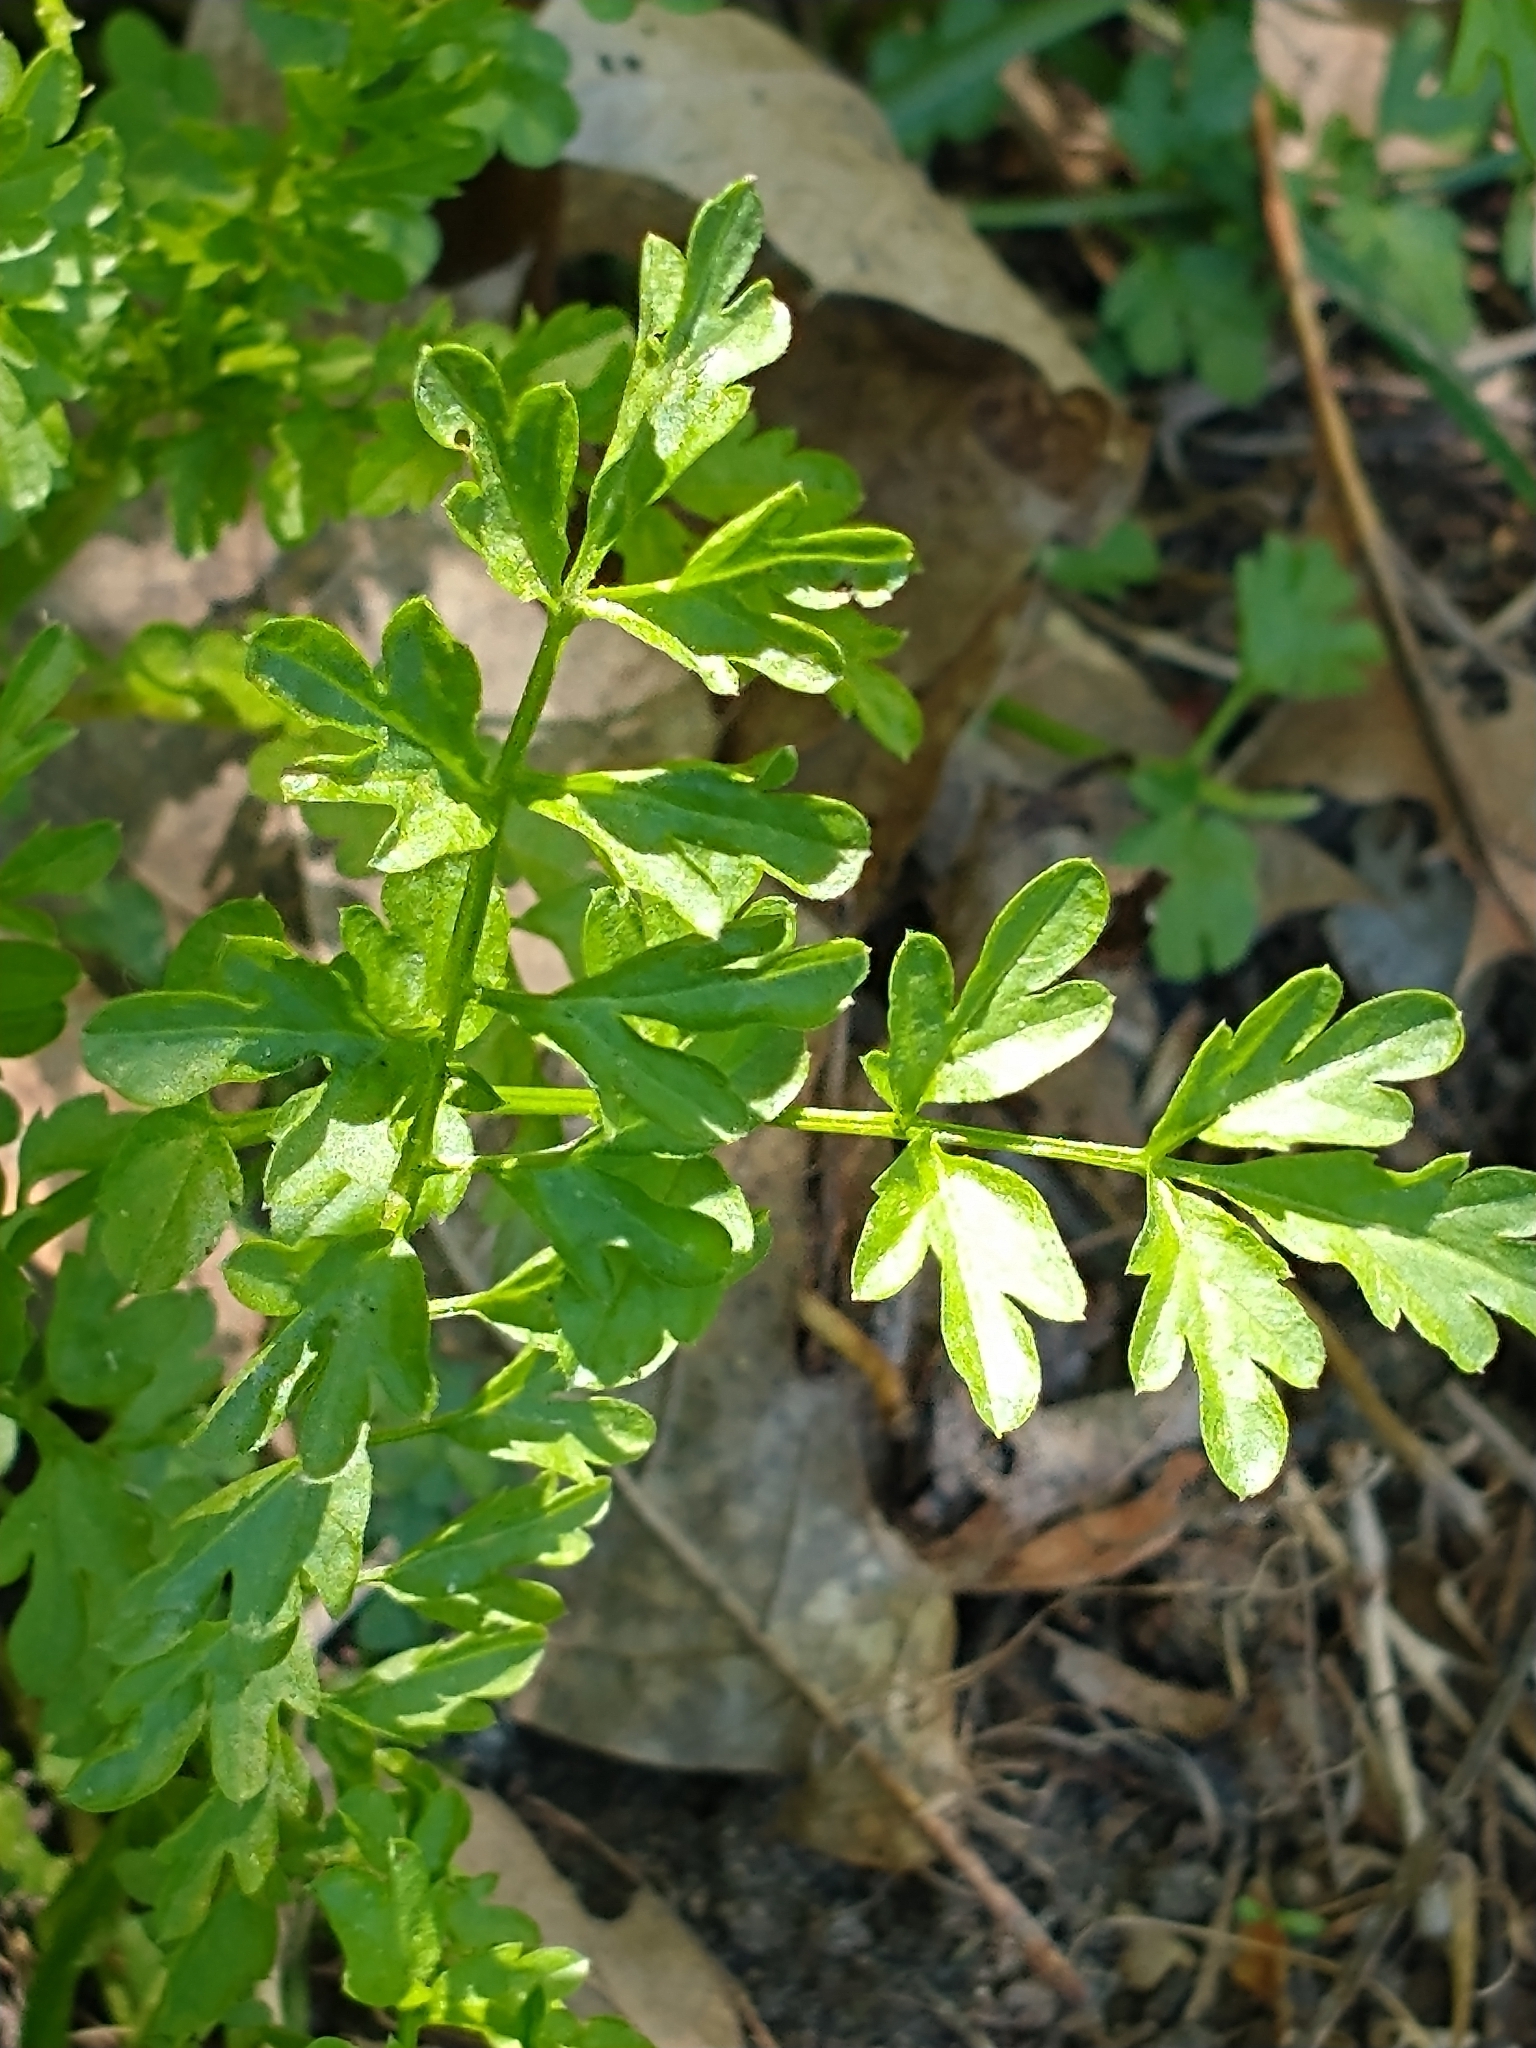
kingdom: Plantae
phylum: Tracheophyta
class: Magnoliopsida
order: Brassicales
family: Brassicaceae
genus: Cardamine
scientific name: Cardamine impatiens
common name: Narrow-leaved bitter-cress
